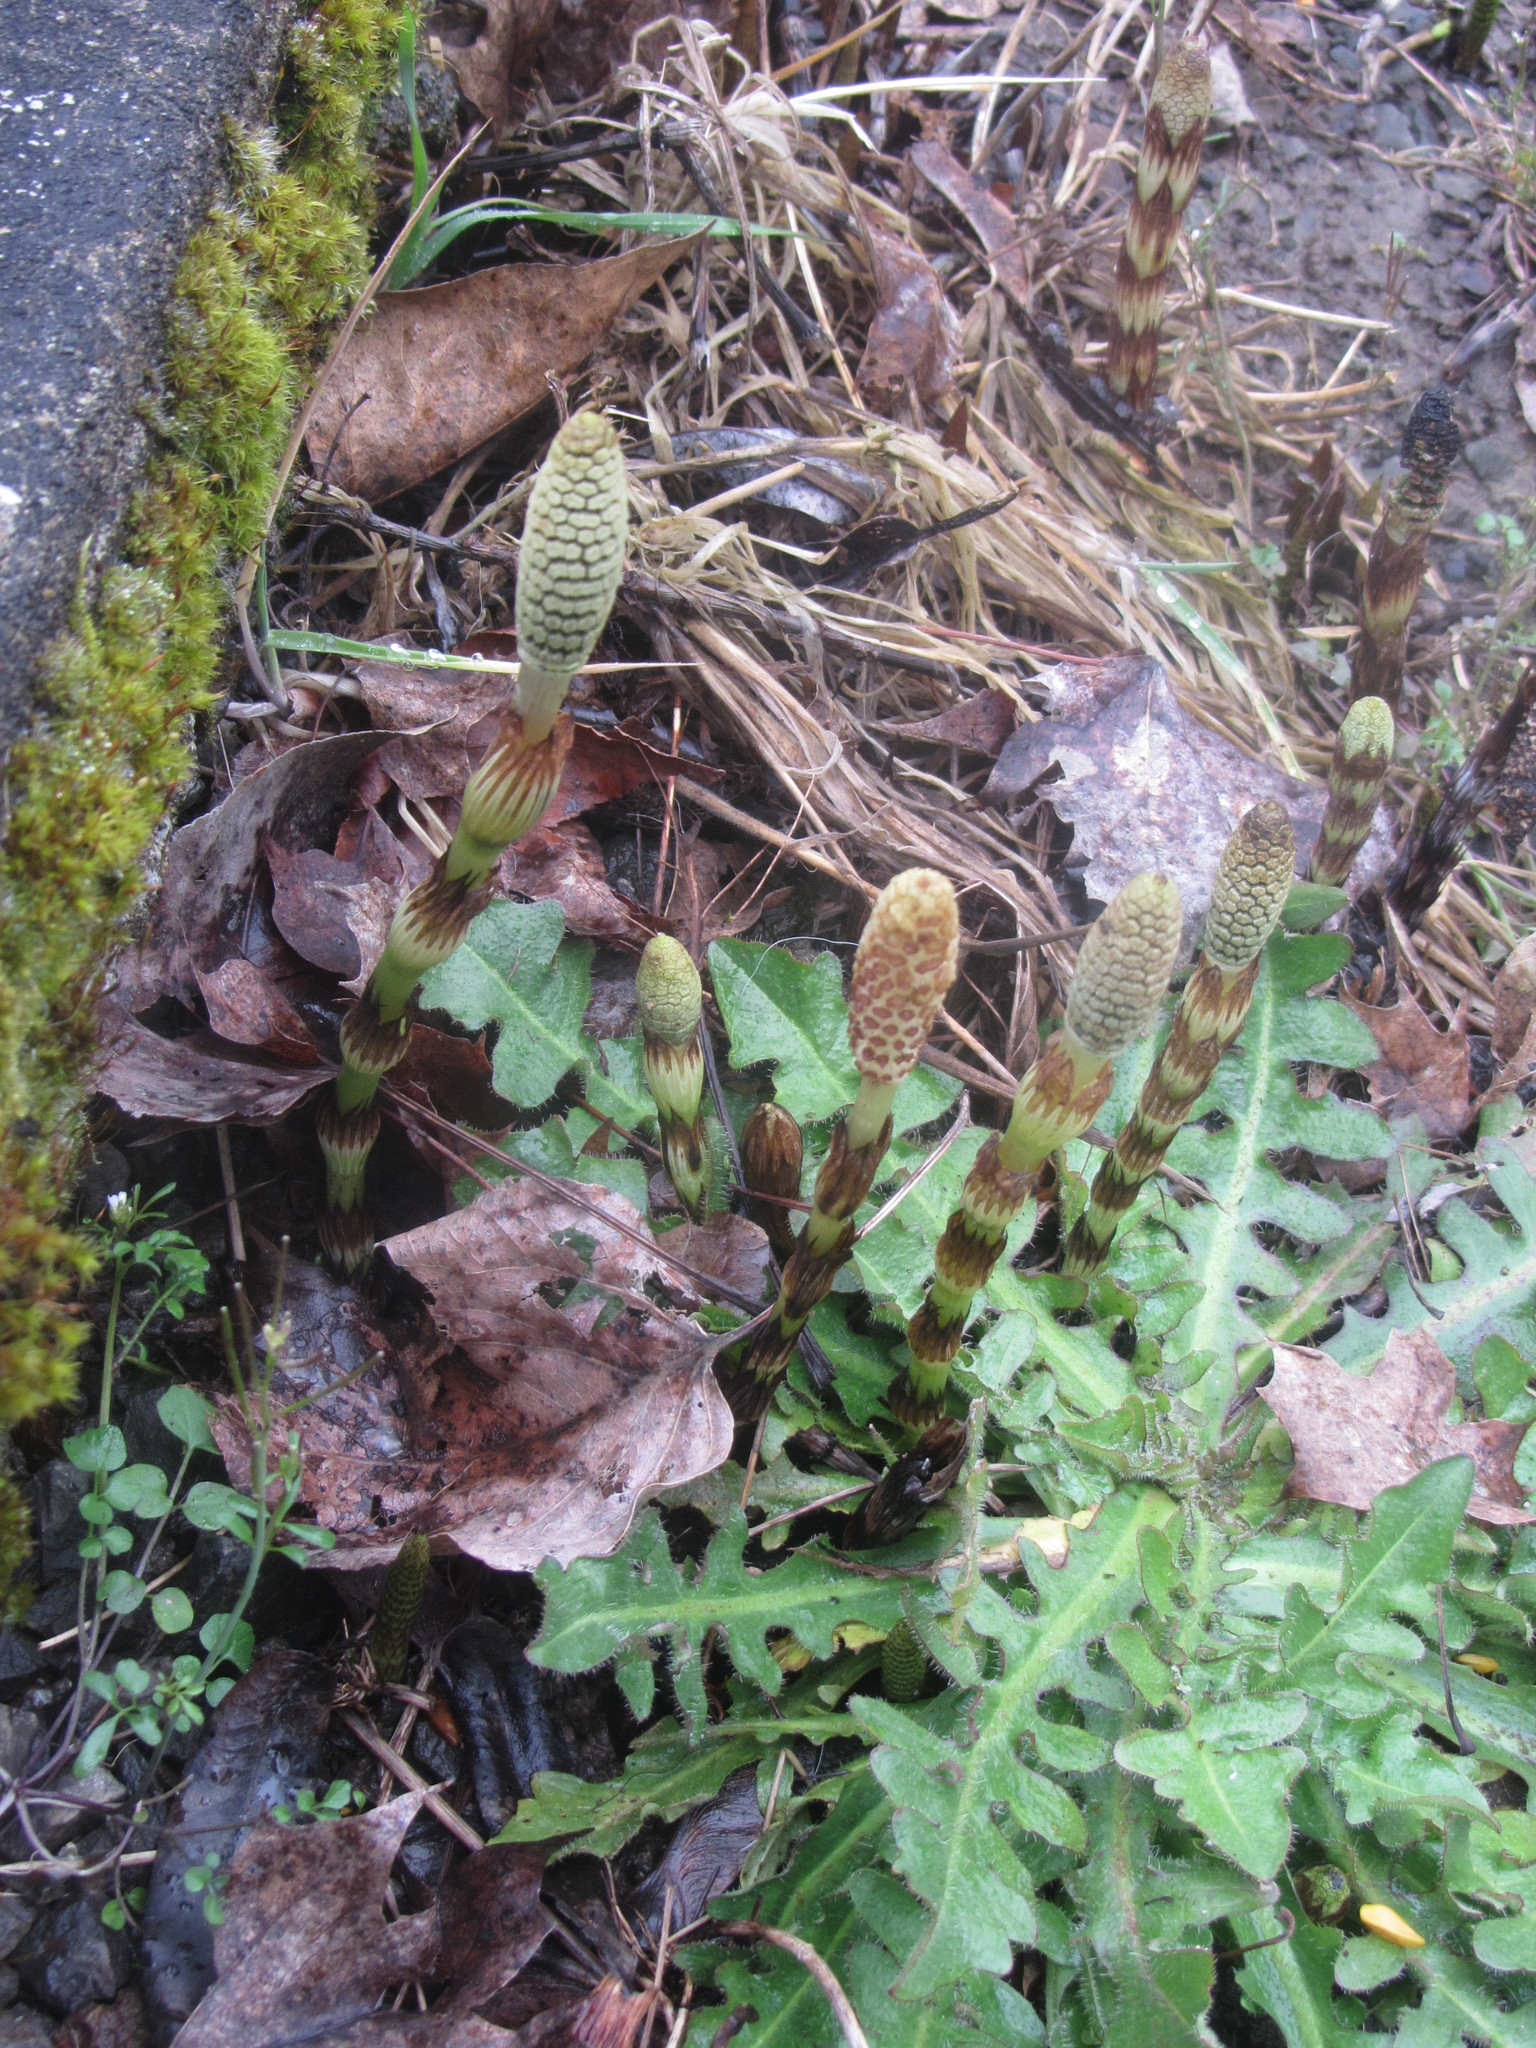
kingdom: Plantae
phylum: Tracheophyta
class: Polypodiopsida
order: Equisetales
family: Equisetaceae
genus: Equisetum
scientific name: Equisetum braunii
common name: Braun's horsetail
